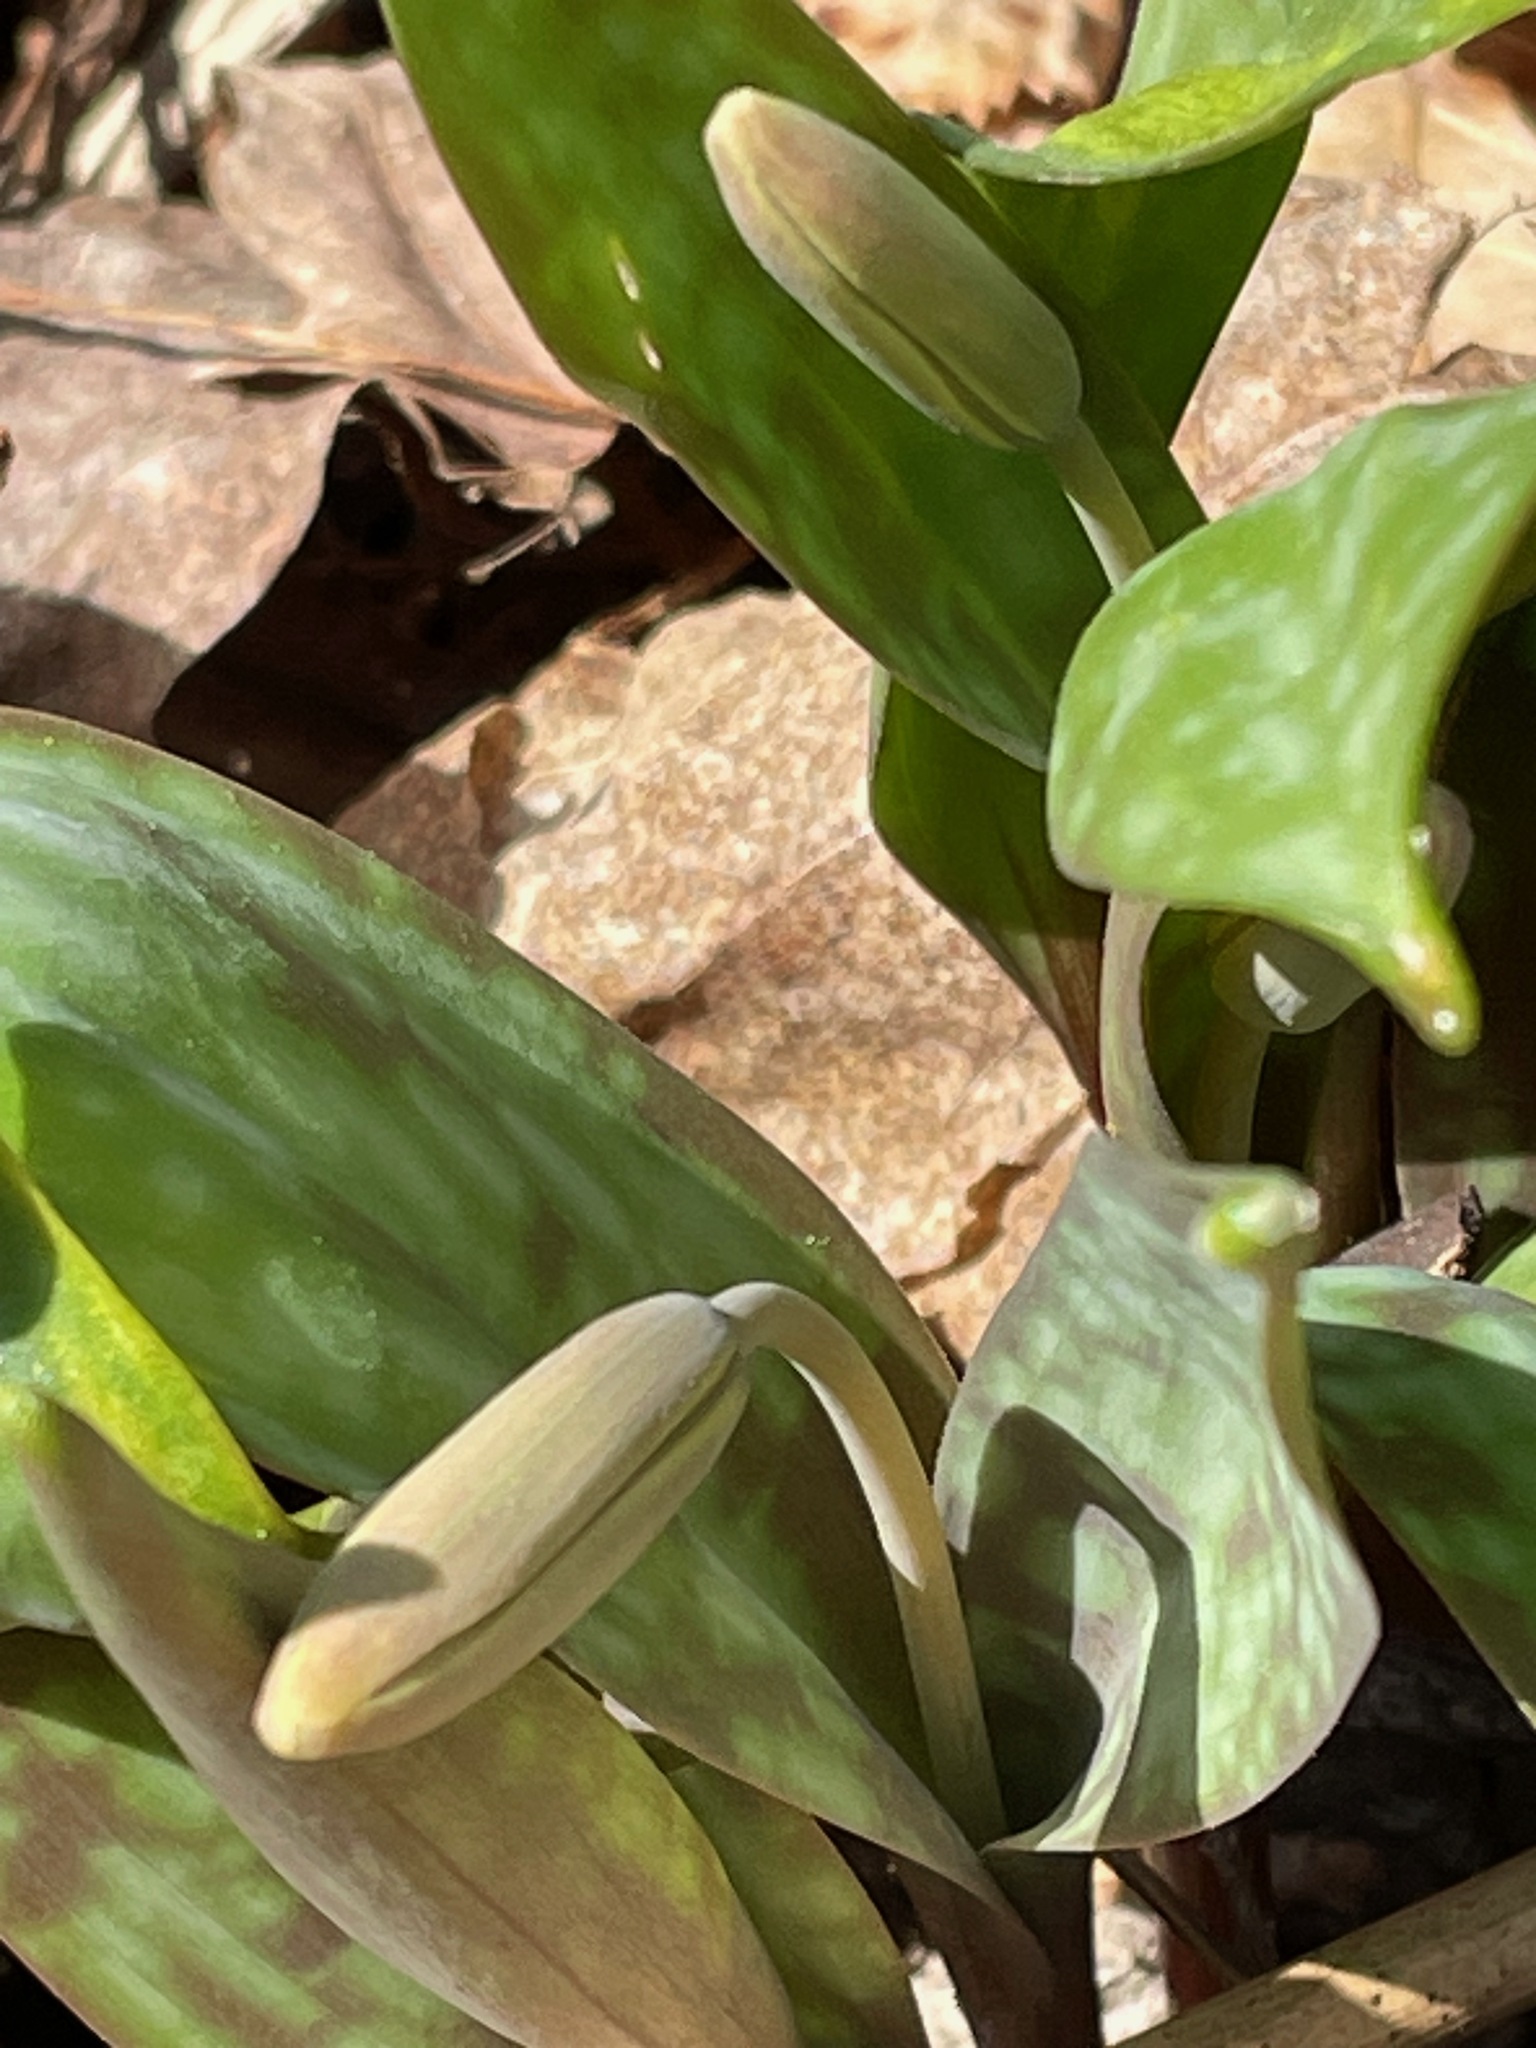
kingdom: Plantae
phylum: Tracheophyta
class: Liliopsida
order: Liliales
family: Liliaceae
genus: Erythronium
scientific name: Erythronium americanum
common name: Yellow adder's-tongue
